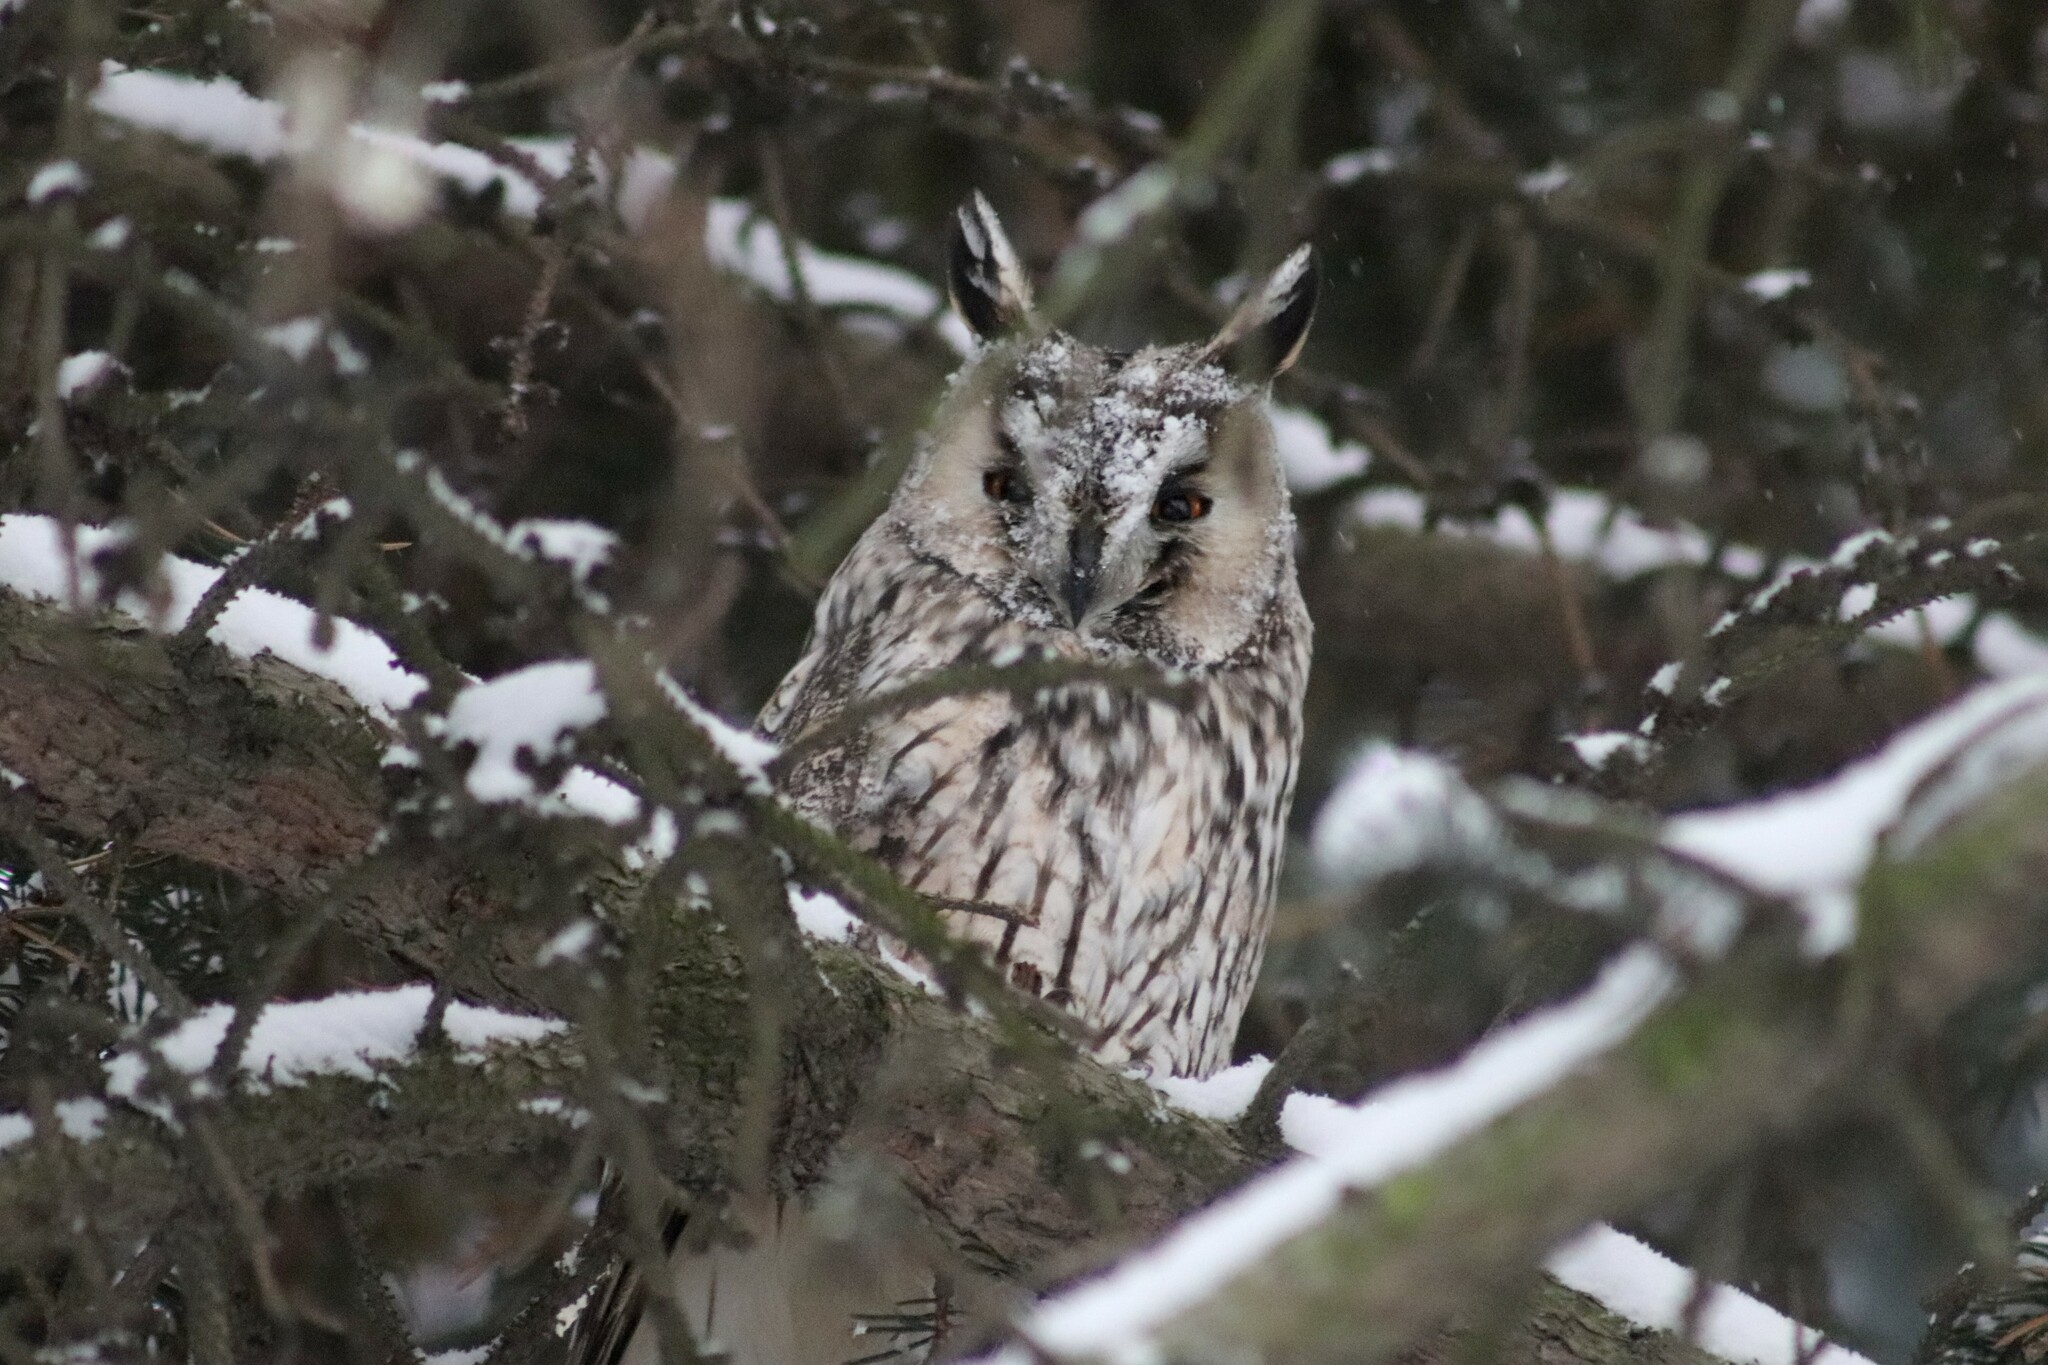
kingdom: Animalia
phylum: Chordata
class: Aves
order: Strigiformes
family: Strigidae
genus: Asio
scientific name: Asio otus
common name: Long-eared owl
